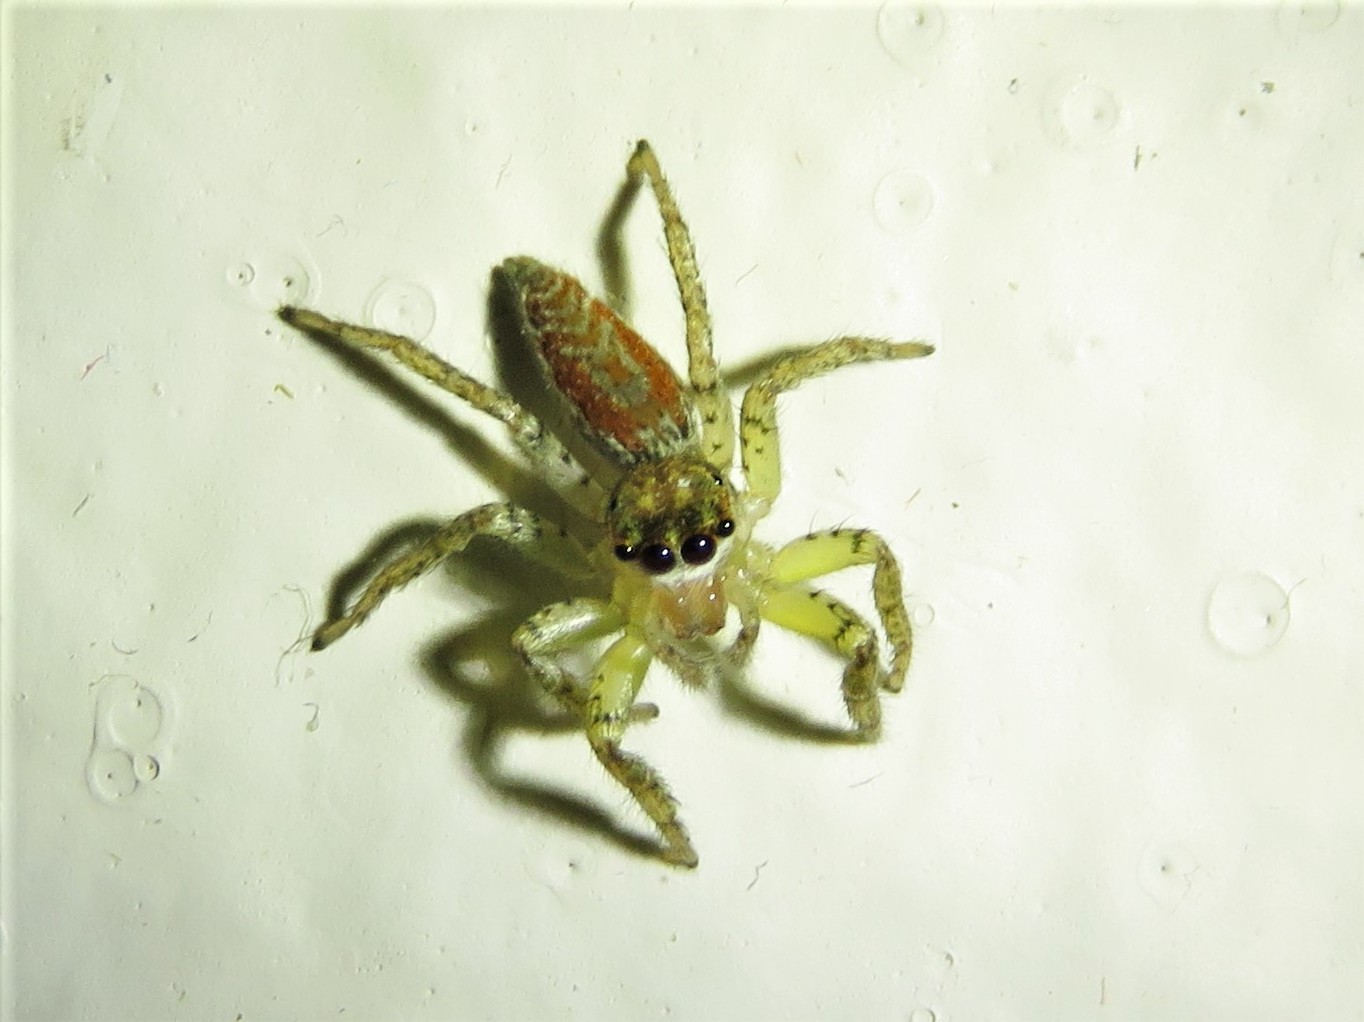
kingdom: Animalia
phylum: Arthropoda
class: Arachnida
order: Araneae
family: Salticidae
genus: Maevia
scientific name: Maevia inclemens
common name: Dimorphic jumper
